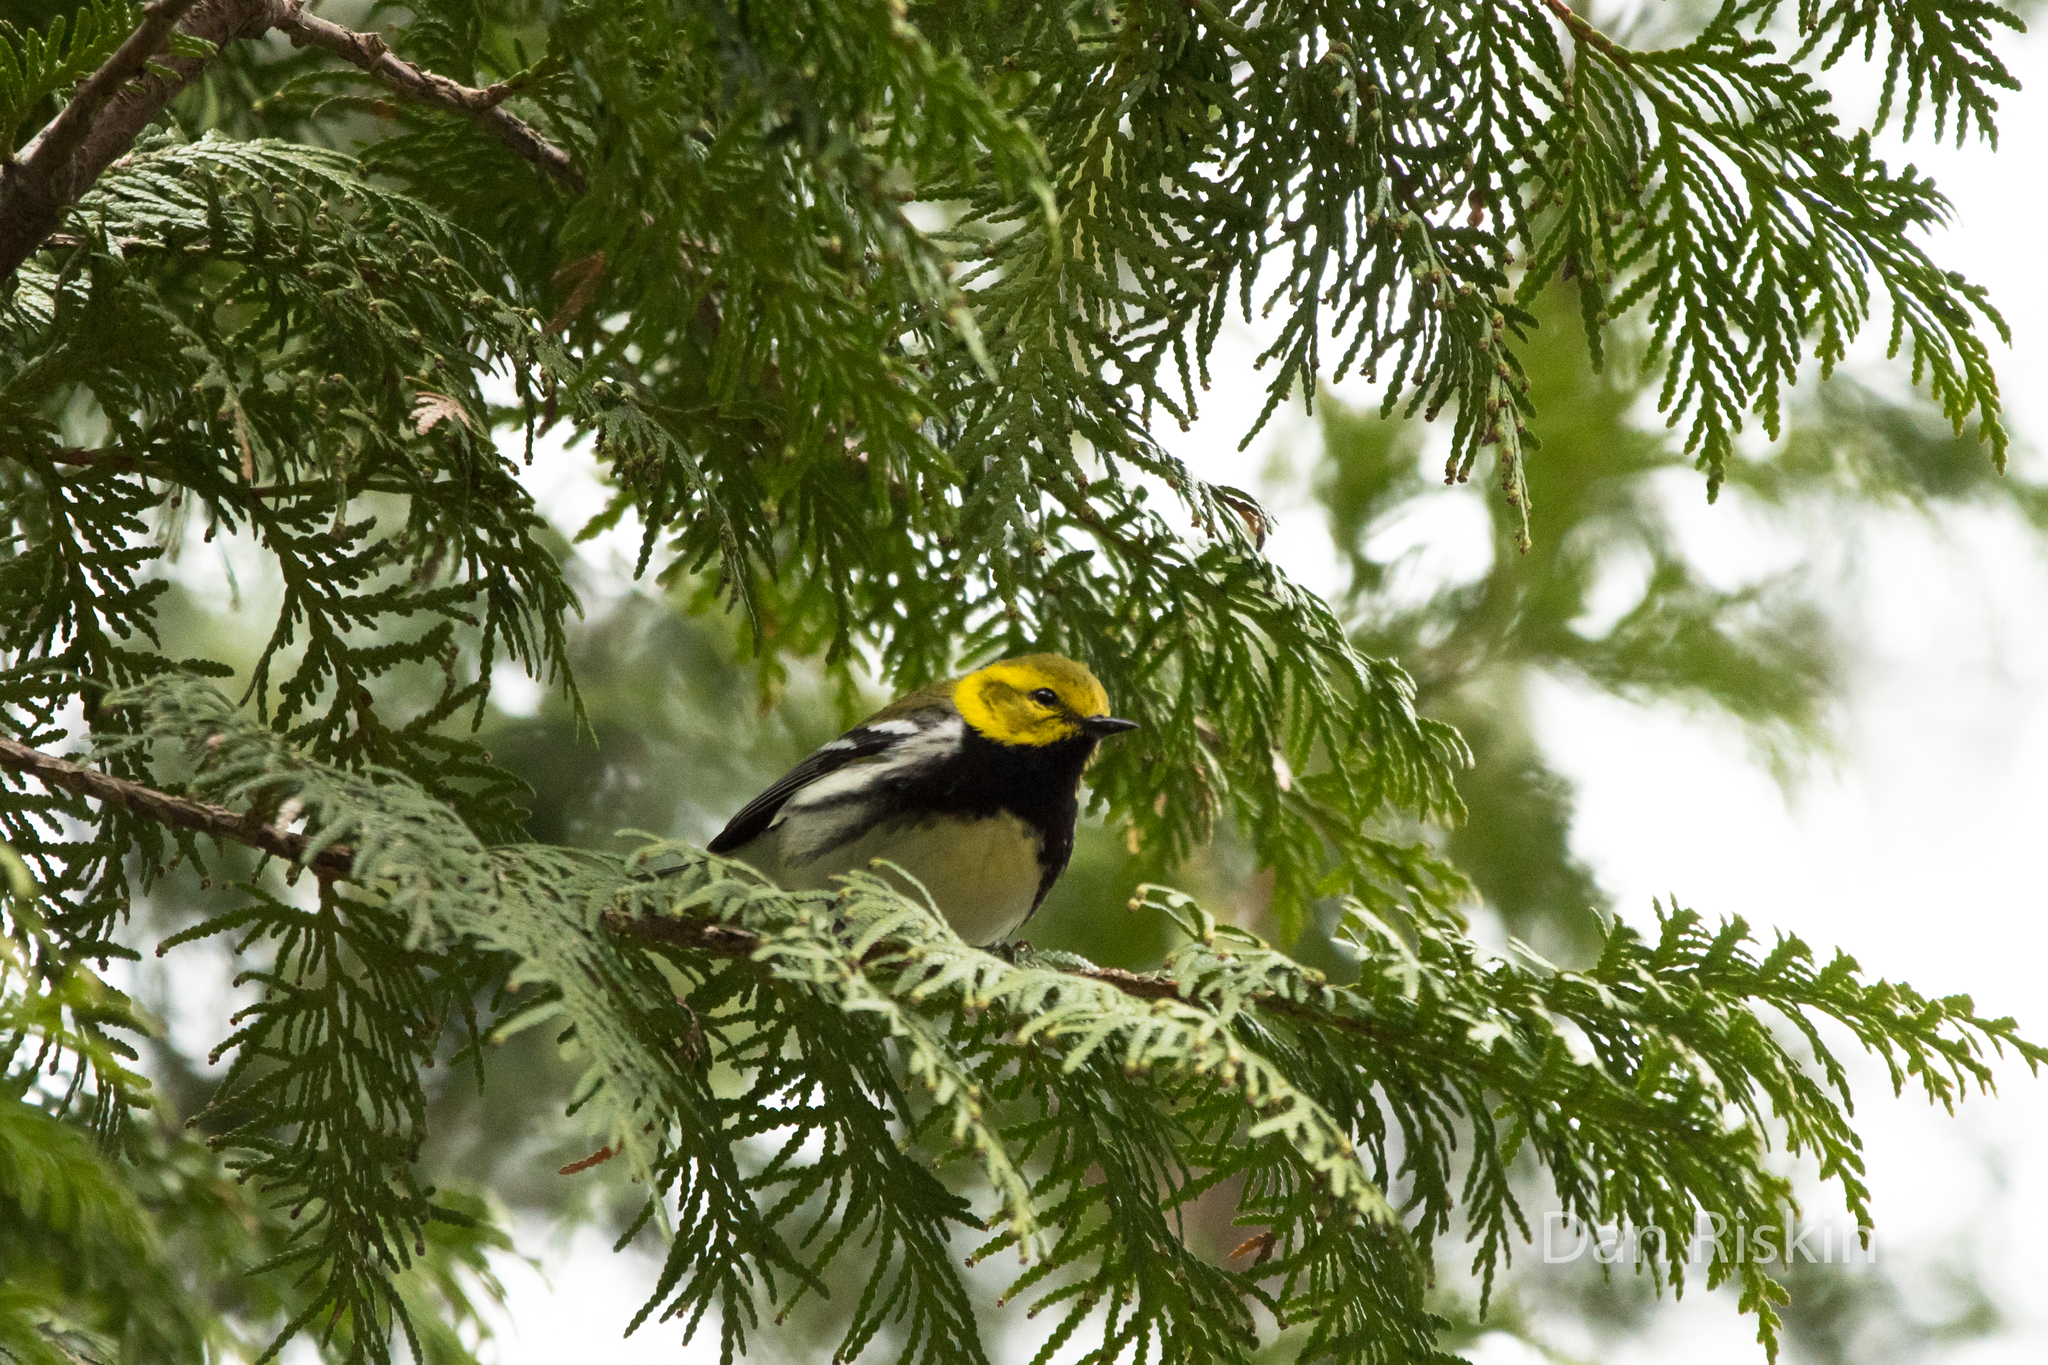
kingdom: Animalia
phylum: Chordata
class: Aves
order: Passeriformes
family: Parulidae
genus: Setophaga
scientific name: Setophaga virens
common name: Black-throated green warbler
